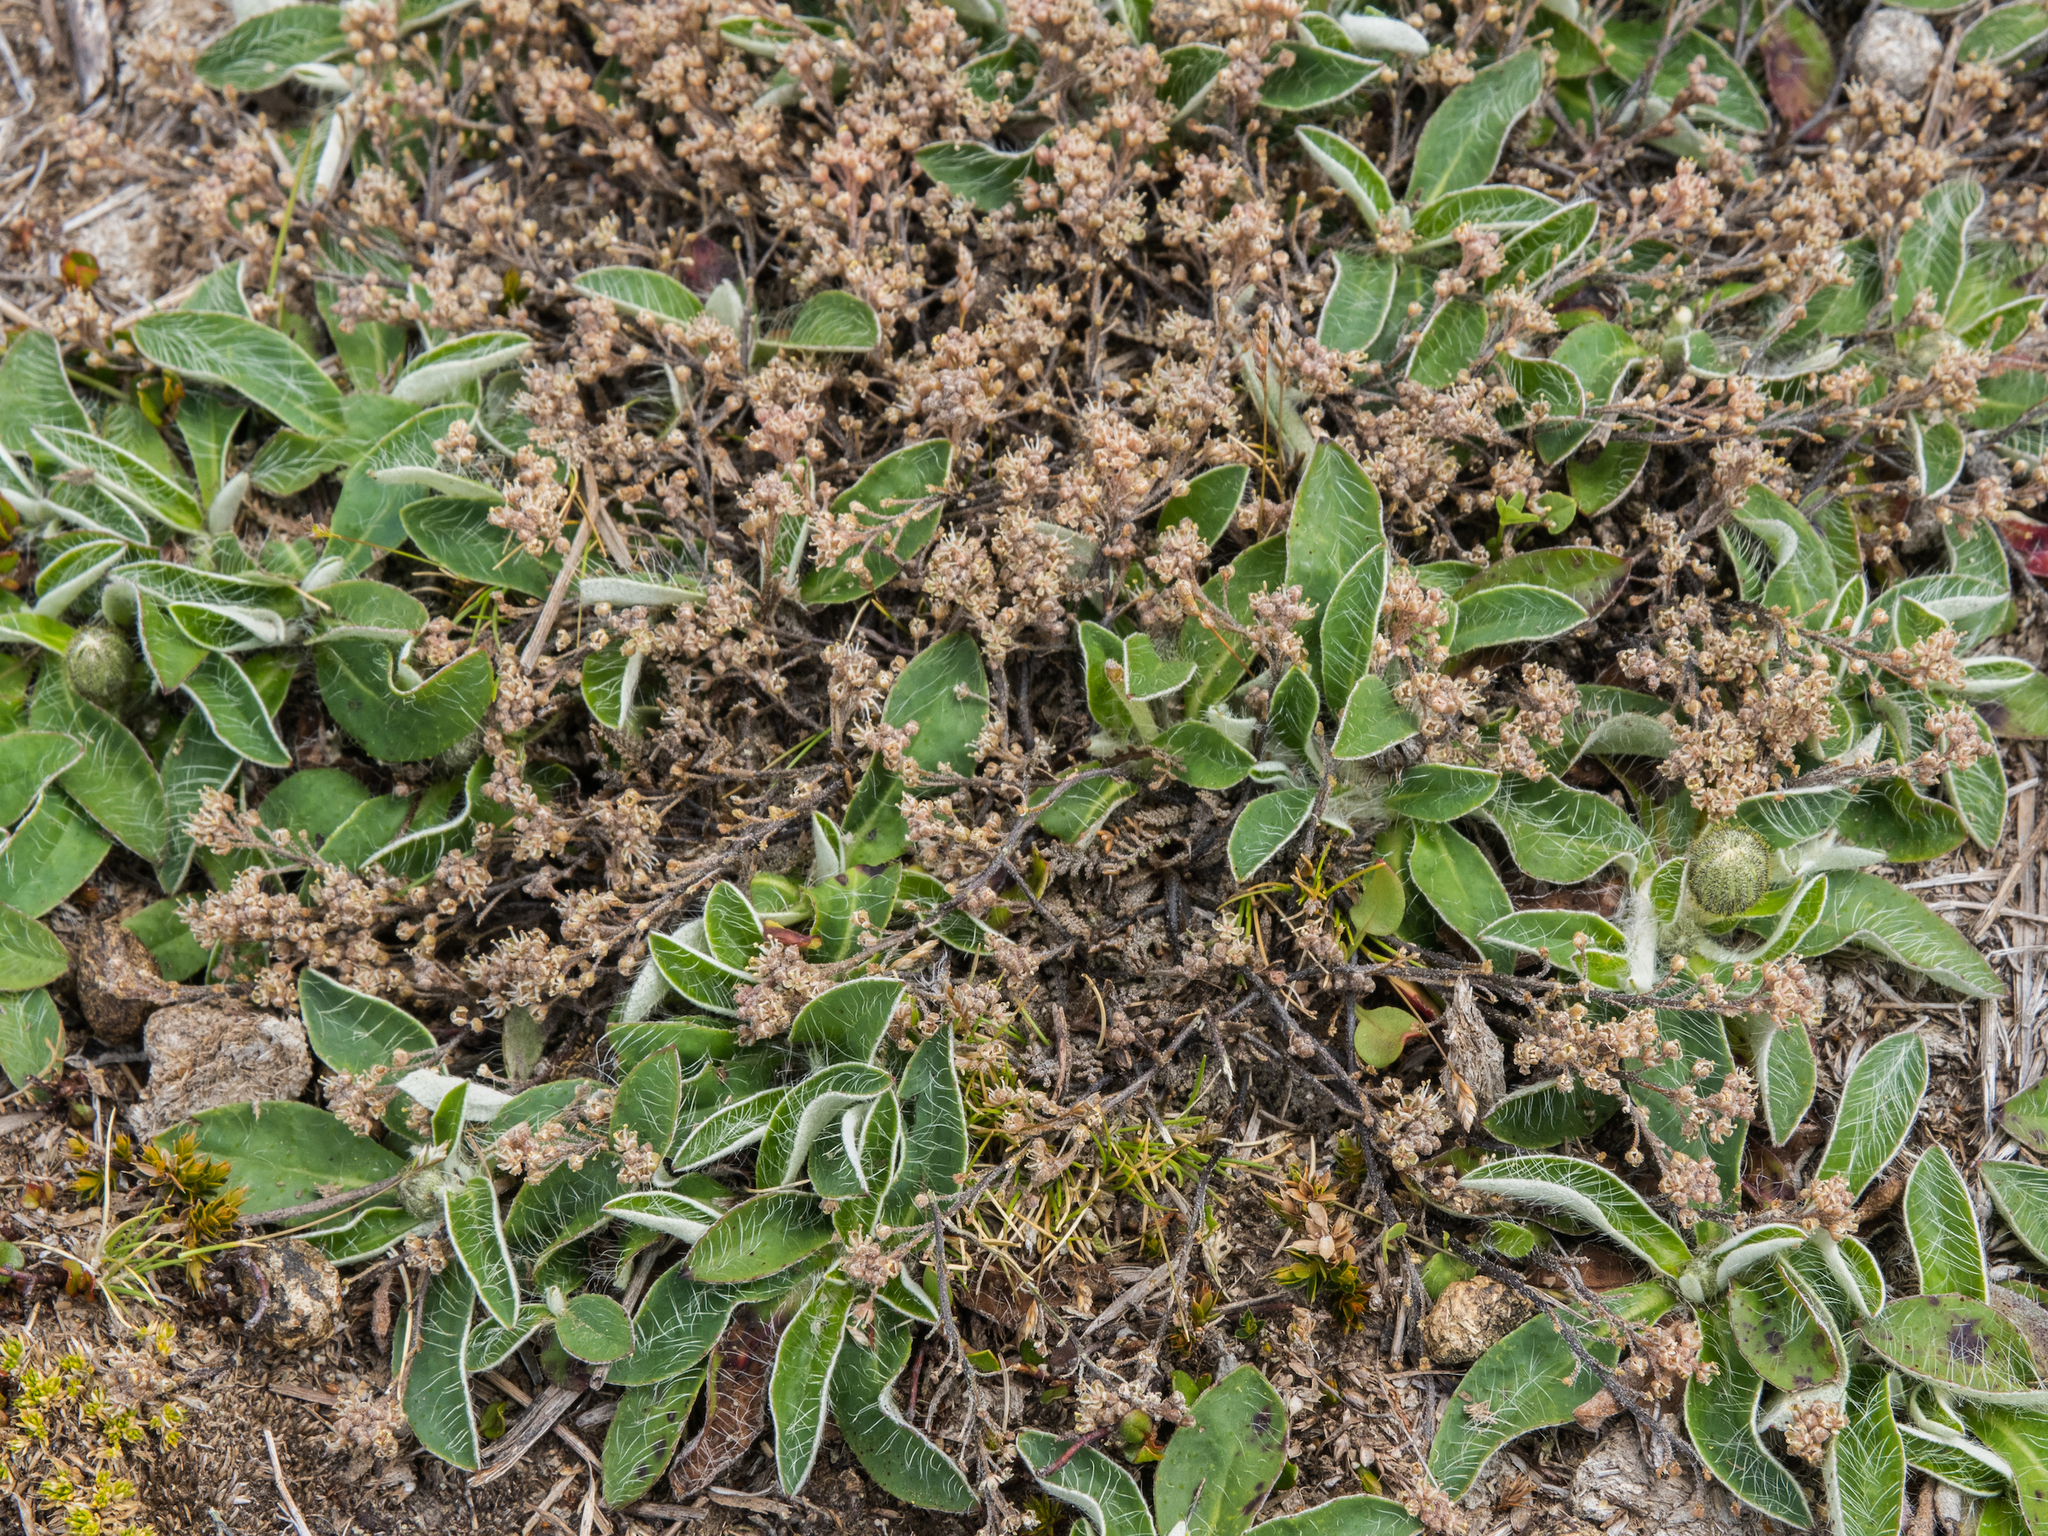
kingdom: Plantae
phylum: Tracheophyta
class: Magnoliopsida
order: Brassicales
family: Brassicaceae
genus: Lepidium
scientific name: Lepidium sisymbrioides
